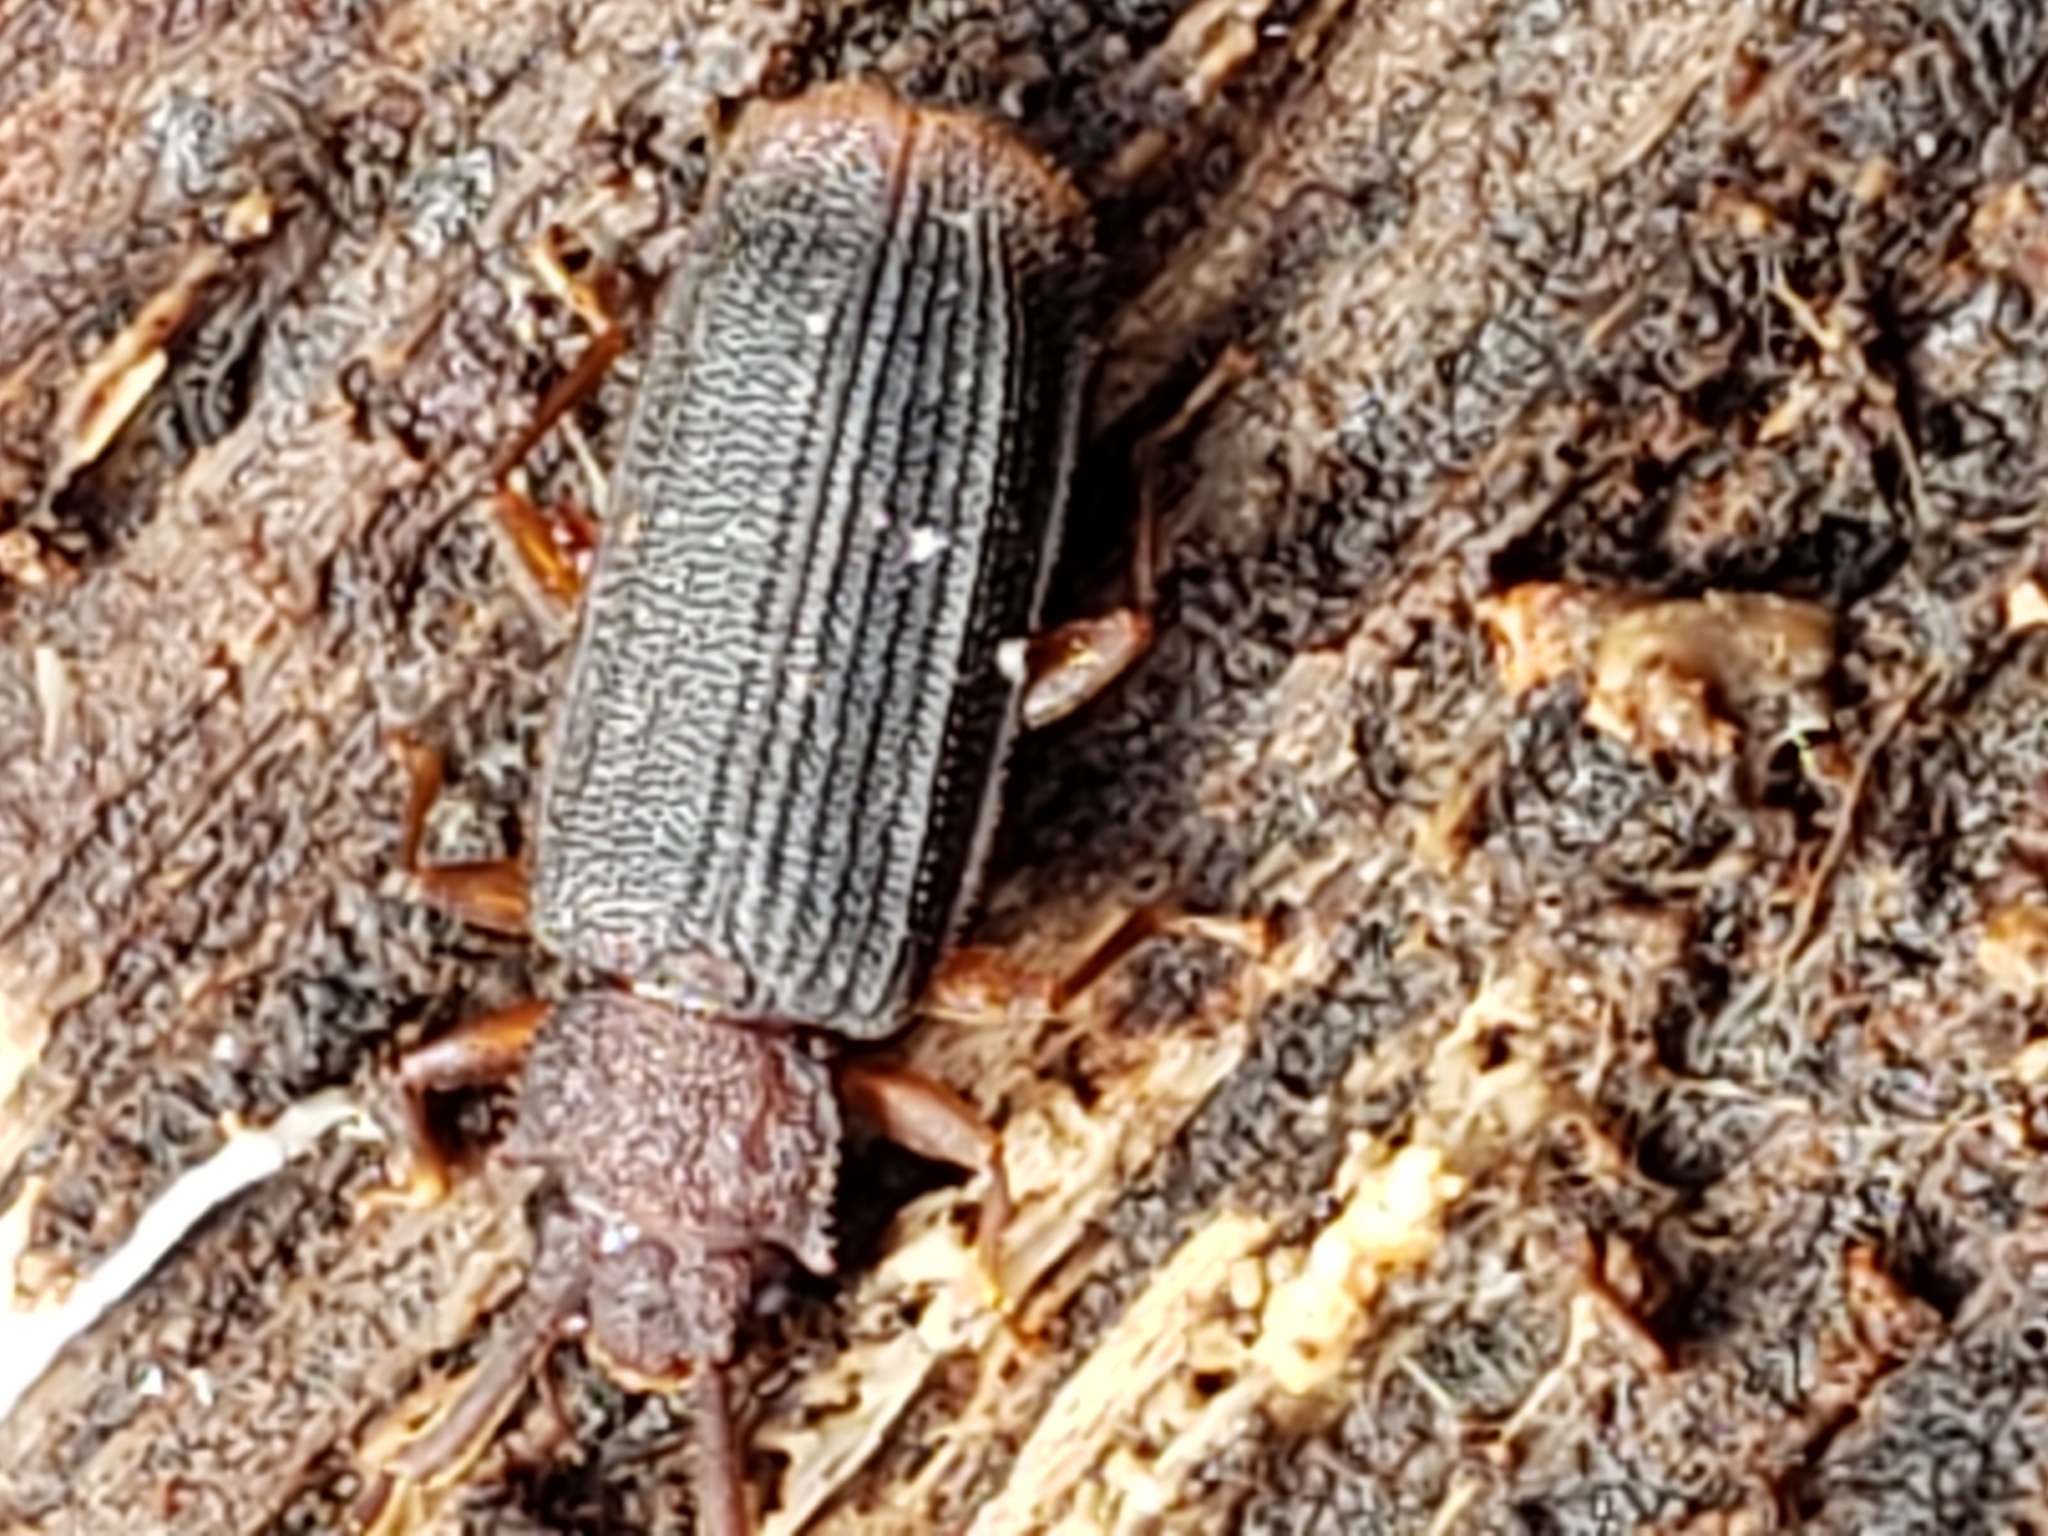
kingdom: Animalia
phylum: Arthropoda
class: Insecta
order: Coleoptera
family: Silvanidae
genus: Uleiota
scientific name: Uleiota dubia
